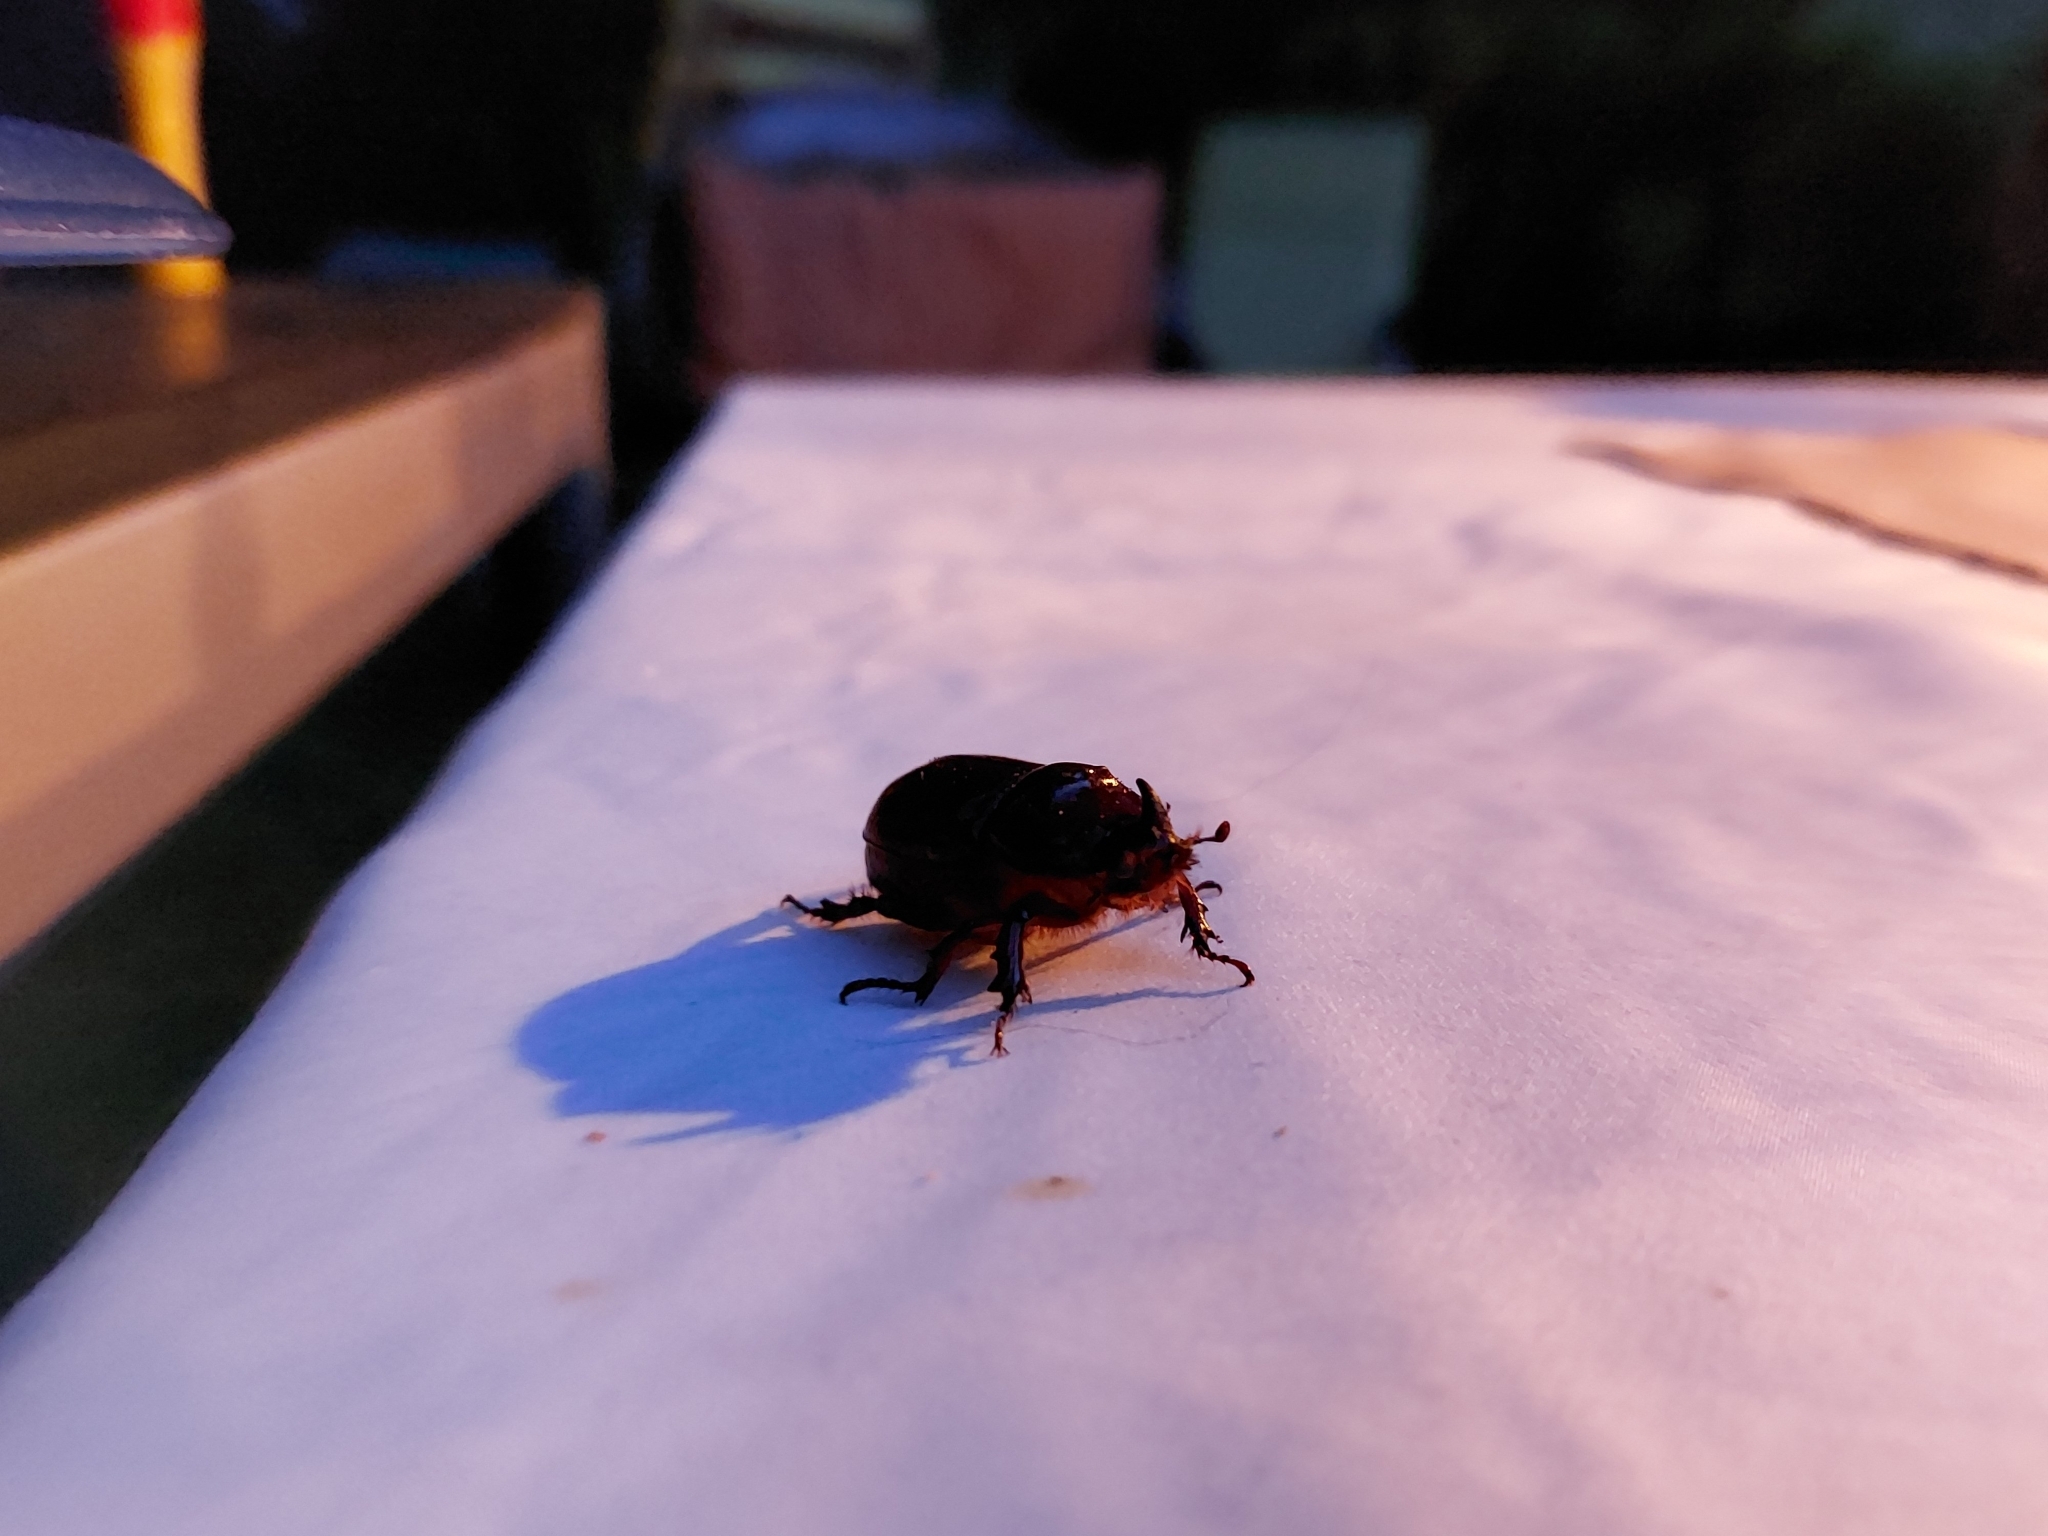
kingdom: Animalia
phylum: Arthropoda
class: Insecta
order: Coleoptera
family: Scarabaeidae
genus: Oryctes
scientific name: Oryctes nasicornis
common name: European rhinoceros beetle
